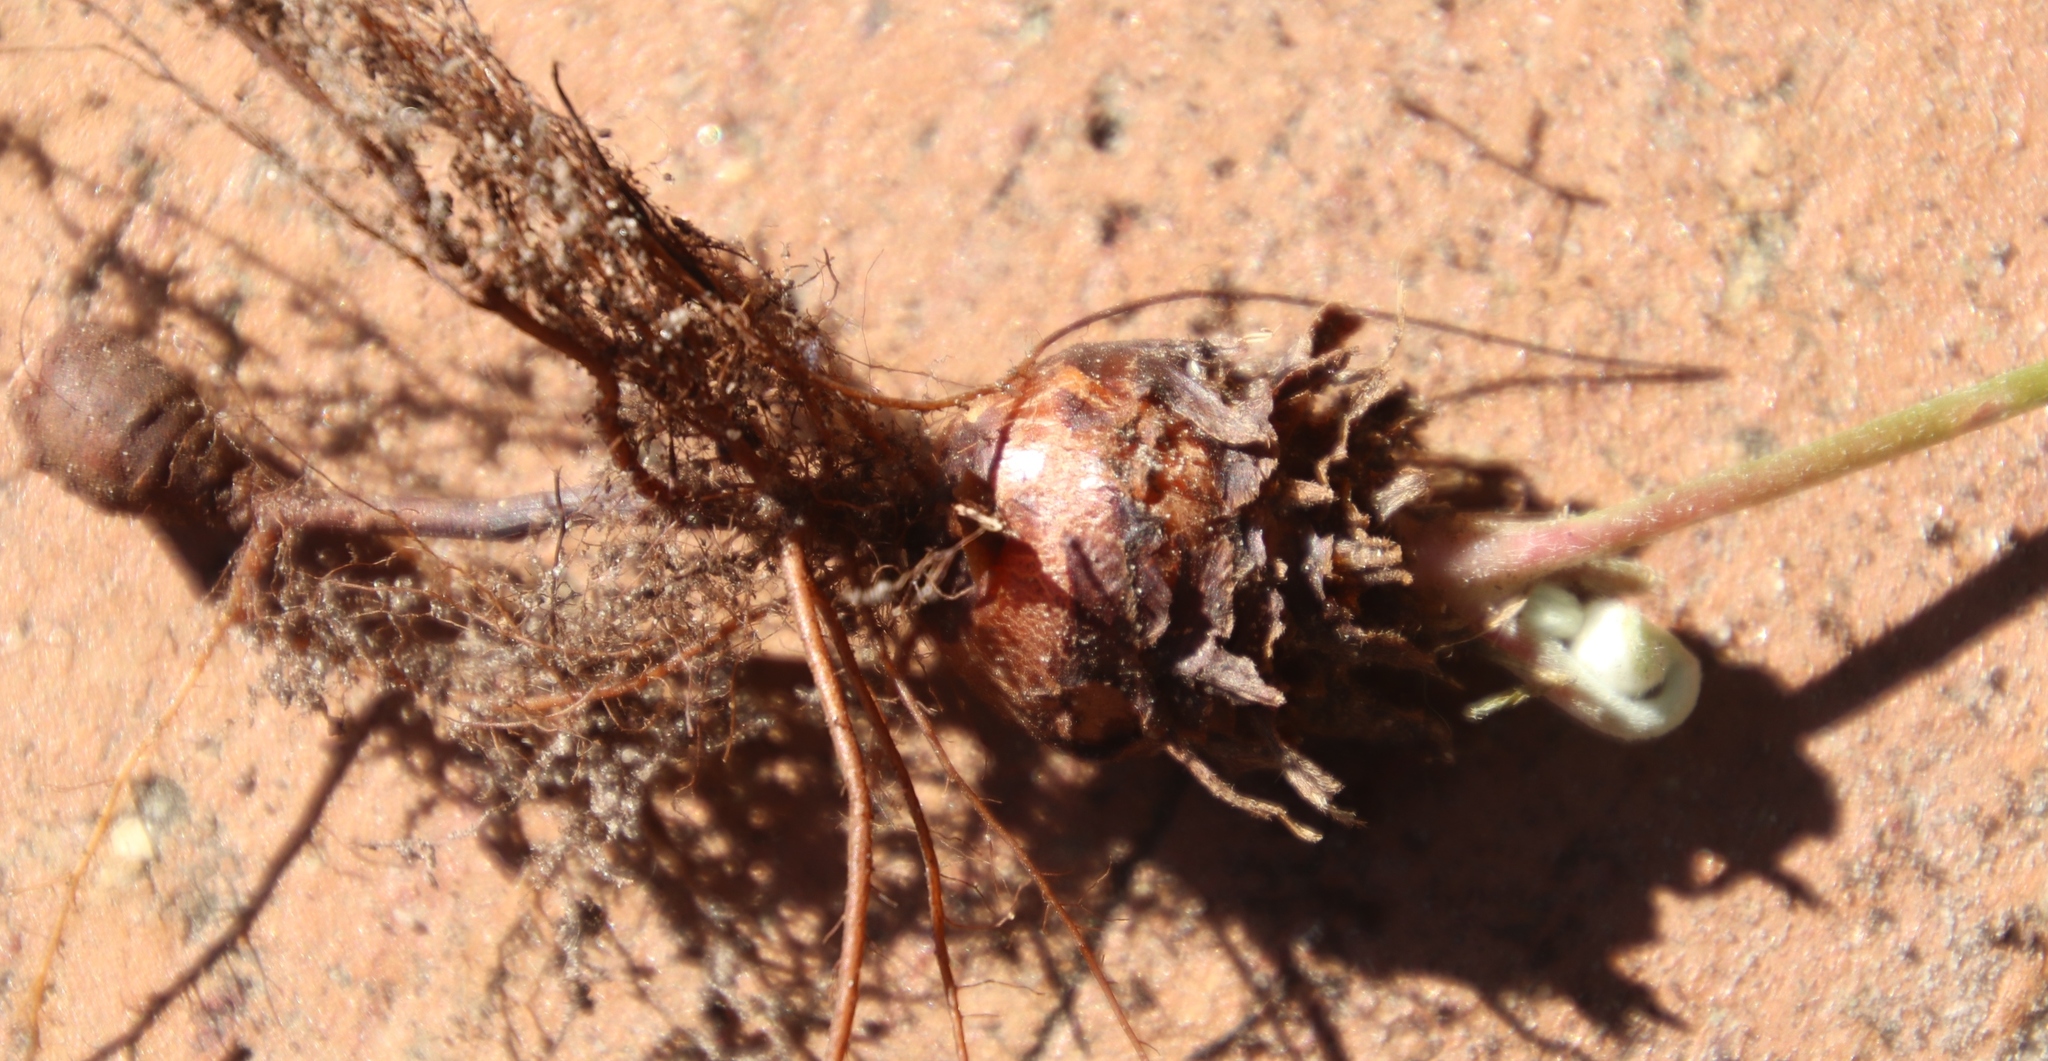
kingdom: Plantae
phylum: Tracheophyta
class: Magnoliopsida
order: Oxalidales
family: Oxalidaceae
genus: Oxalis
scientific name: Oxalis articulata
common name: Pink-sorrel
